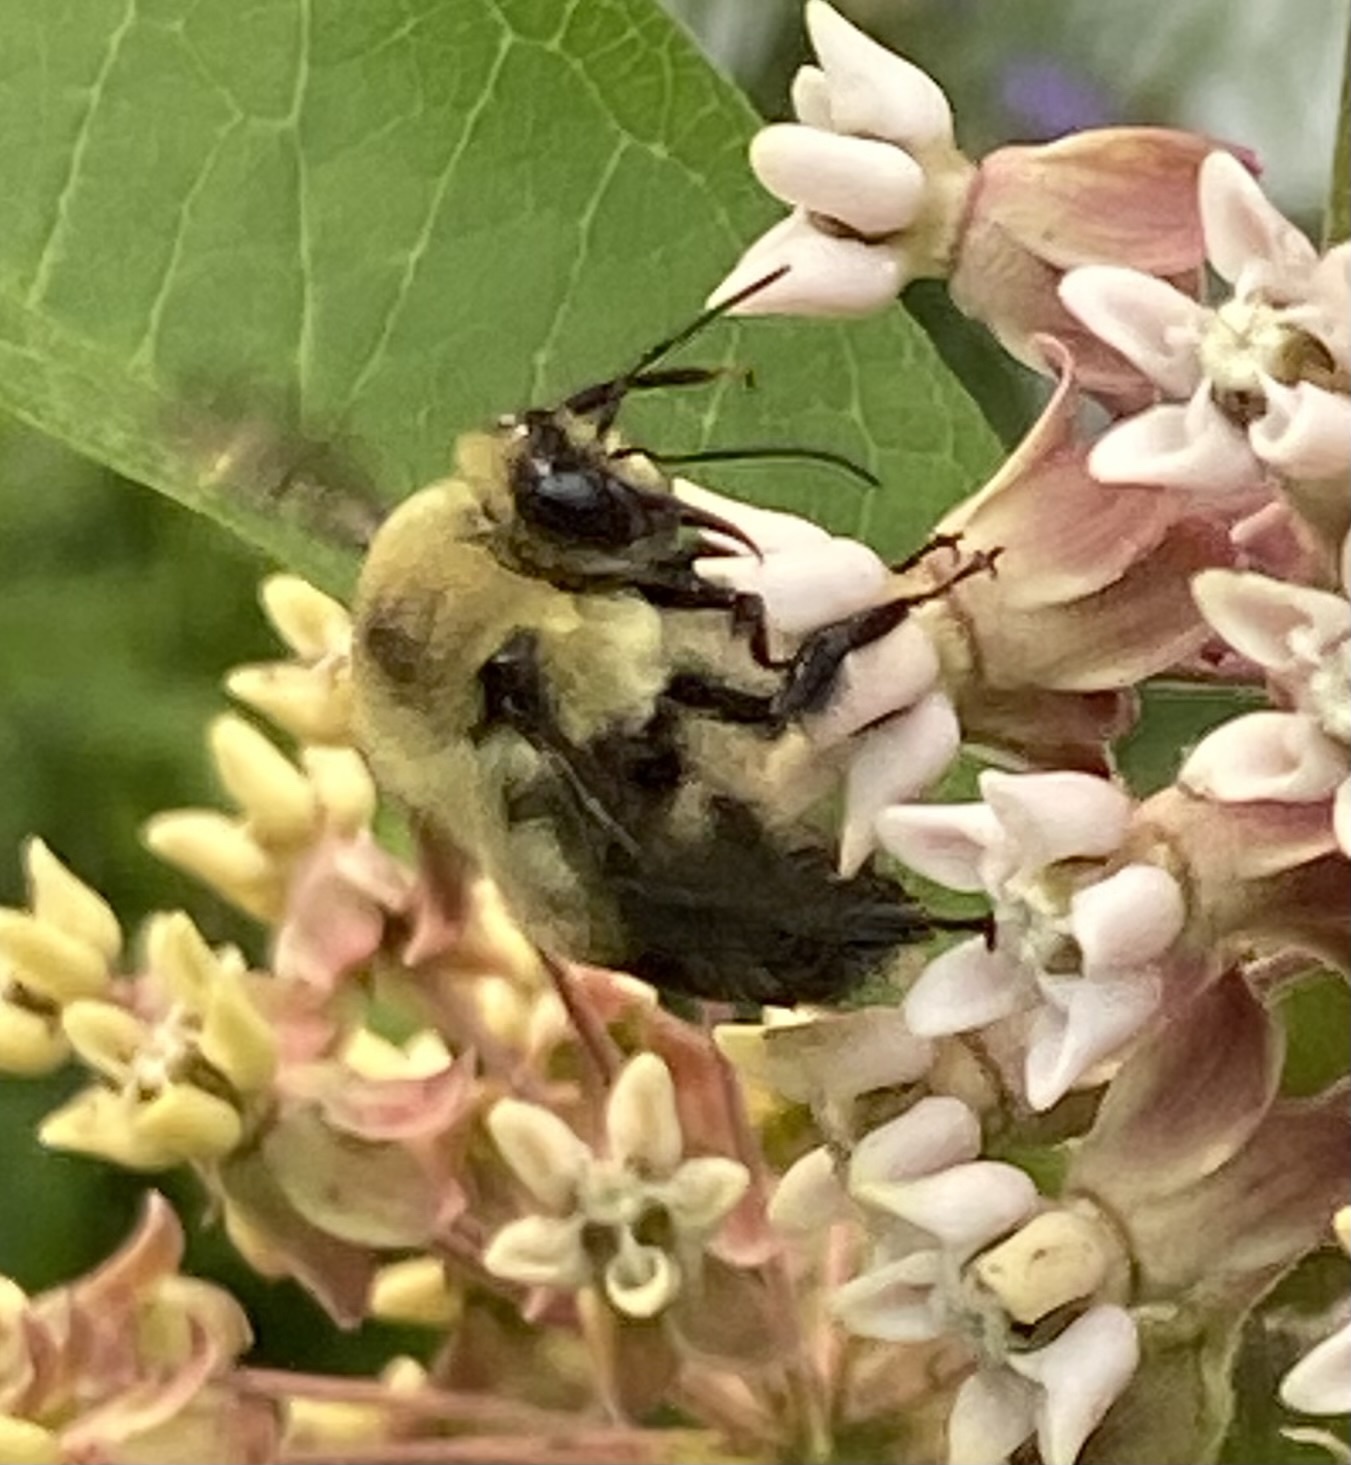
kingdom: Animalia
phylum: Arthropoda
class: Insecta
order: Hymenoptera
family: Apidae
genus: Bombus
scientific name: Bombus griseocollis
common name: Brown-belted bumble bee
